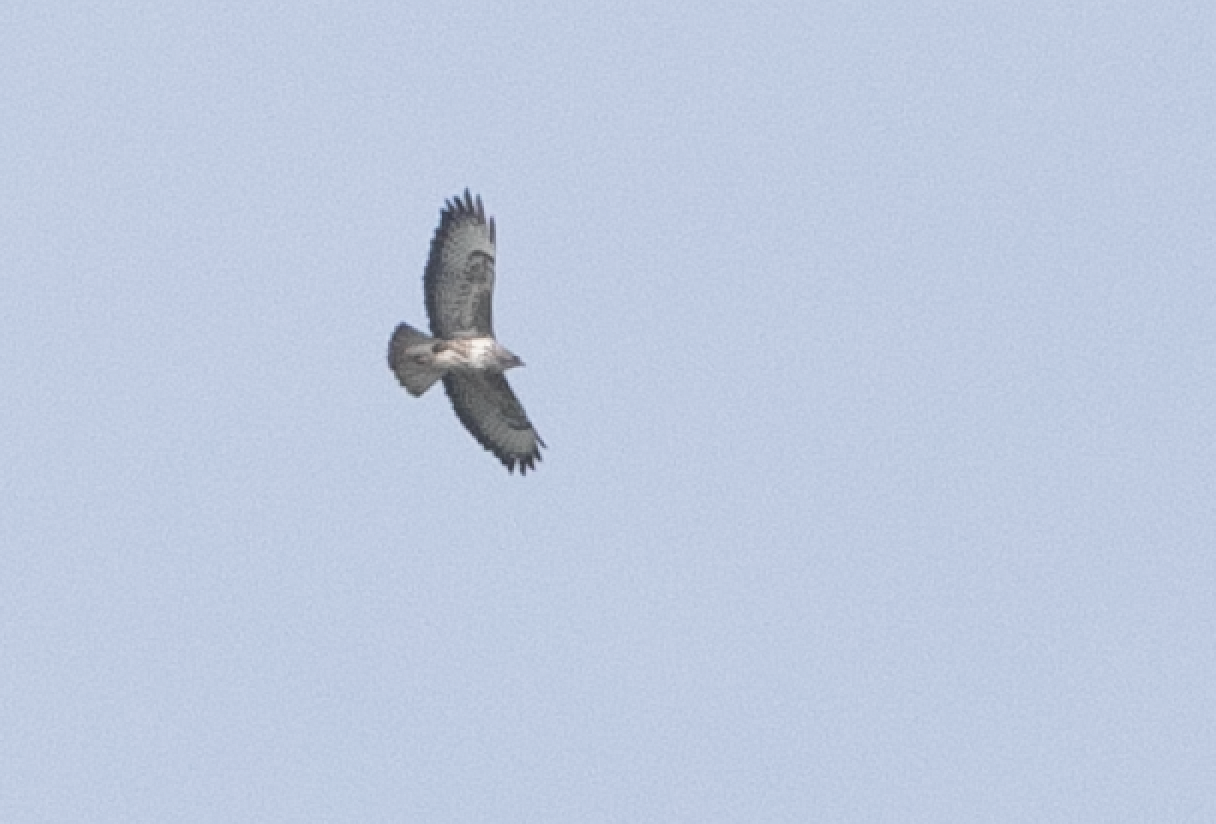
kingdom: Animalia
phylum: Chordata
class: Aves
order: Accipitriformes
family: Accipitridae
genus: Buteo
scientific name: Buteo buteo
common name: Common buzzard
